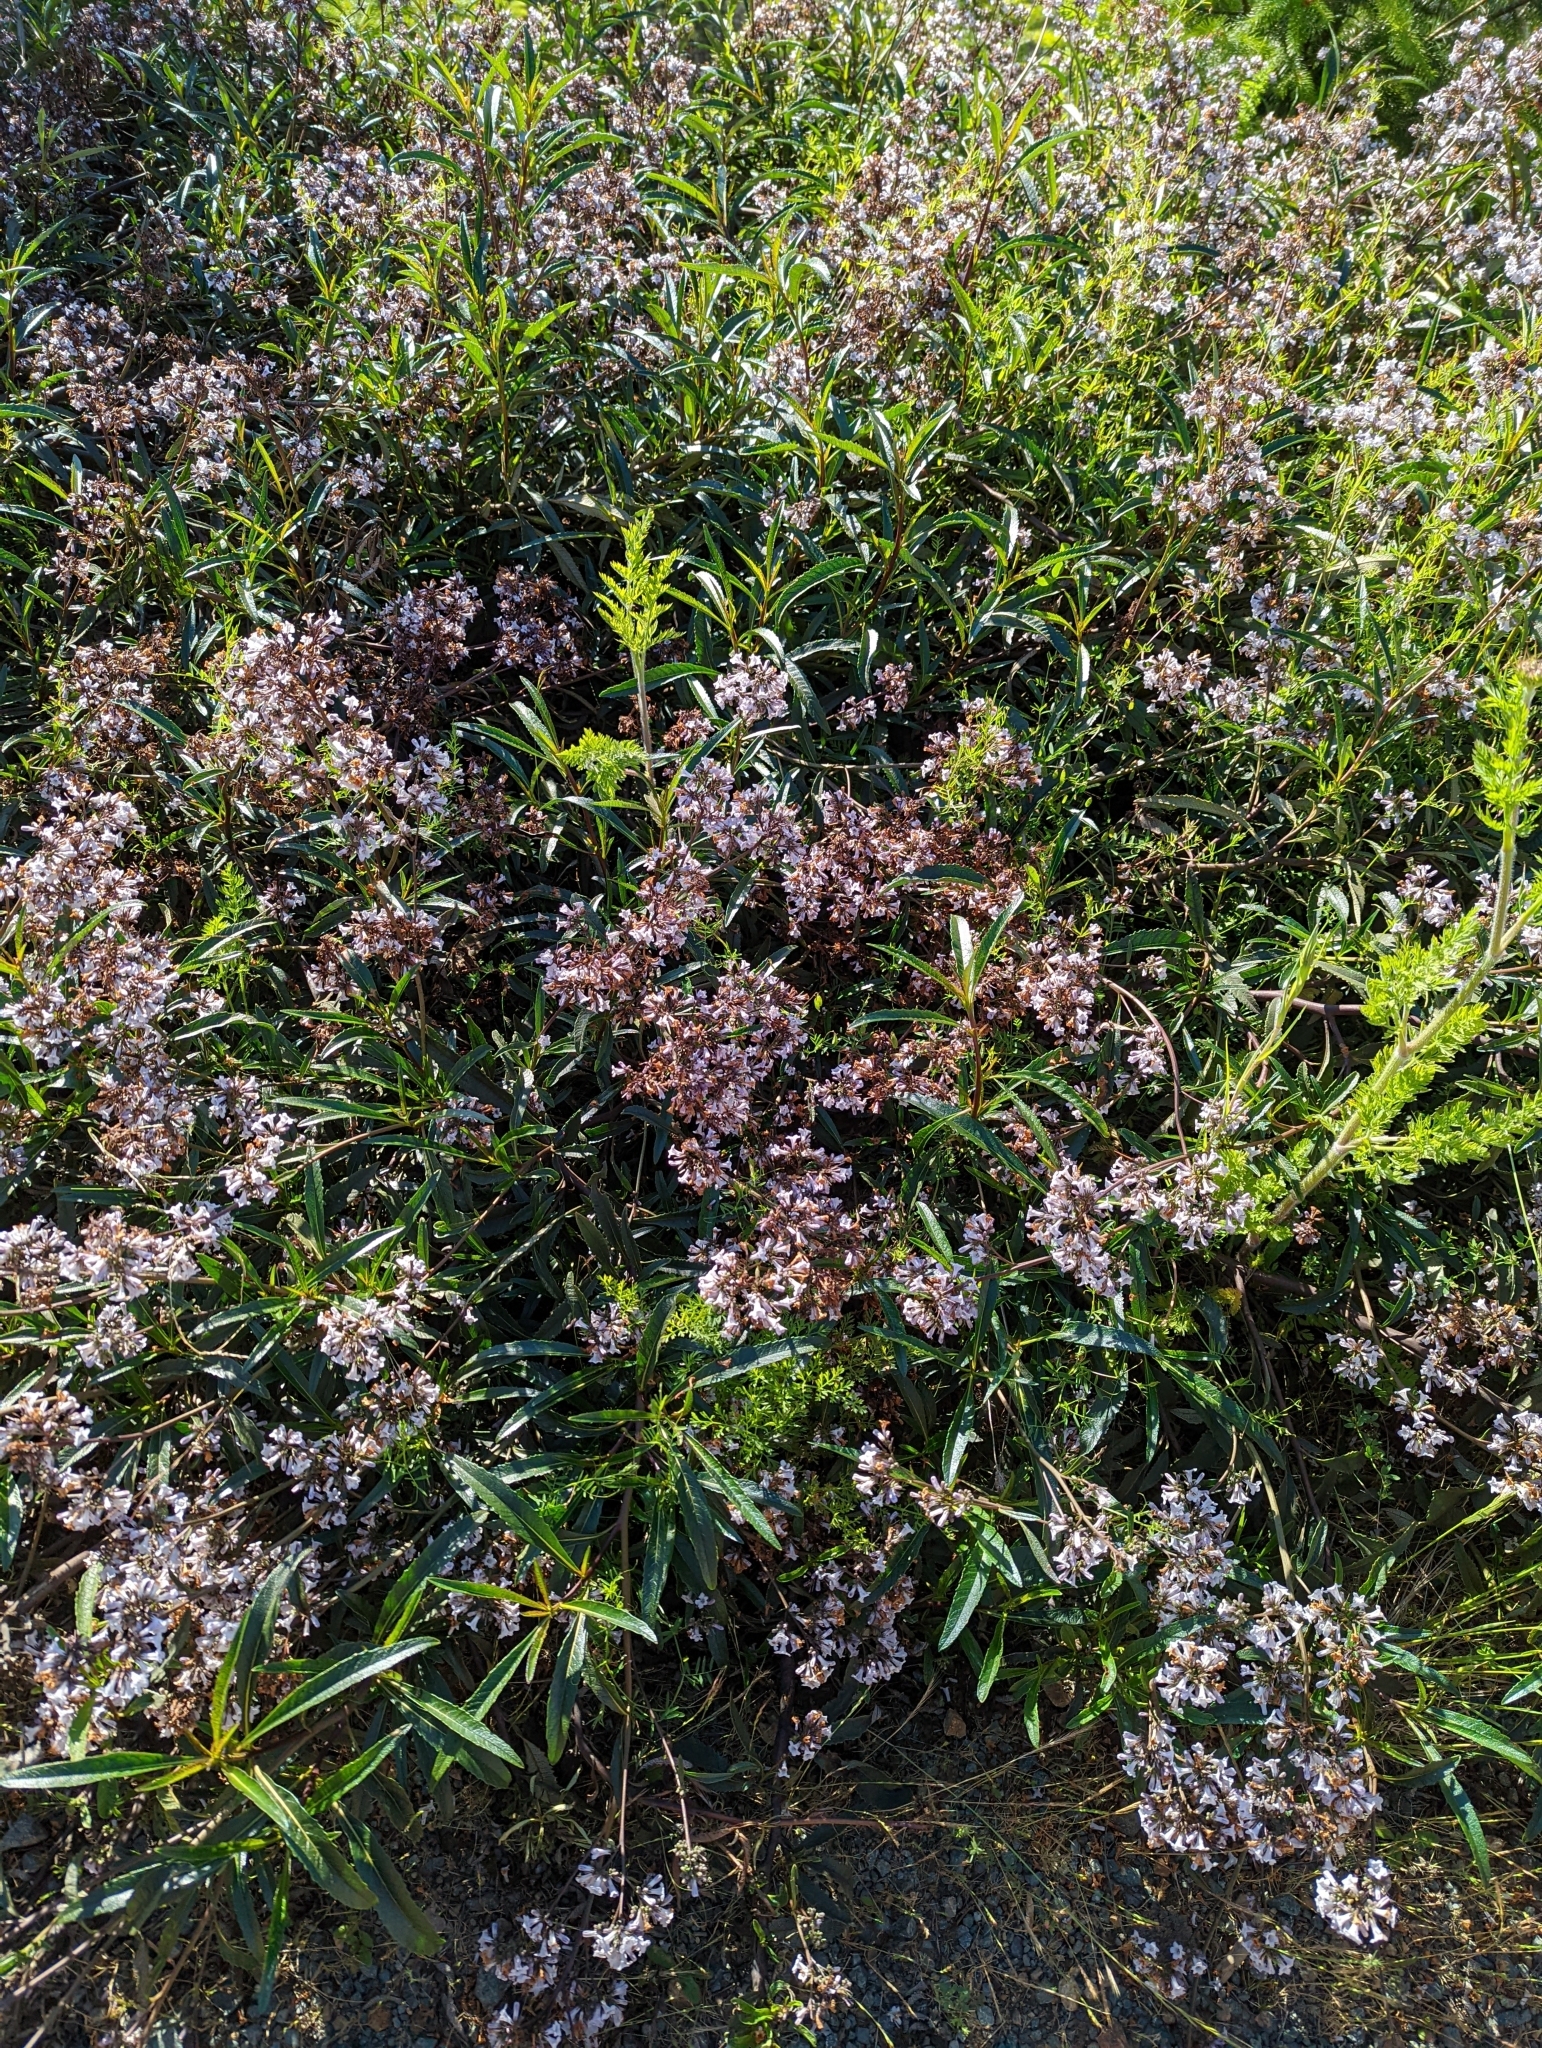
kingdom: Plantae
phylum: Tracheophyta
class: Magnoliopsida
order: Boraginales
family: Namaceae
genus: Eriodictyon
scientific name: Eriodictyon californicum
